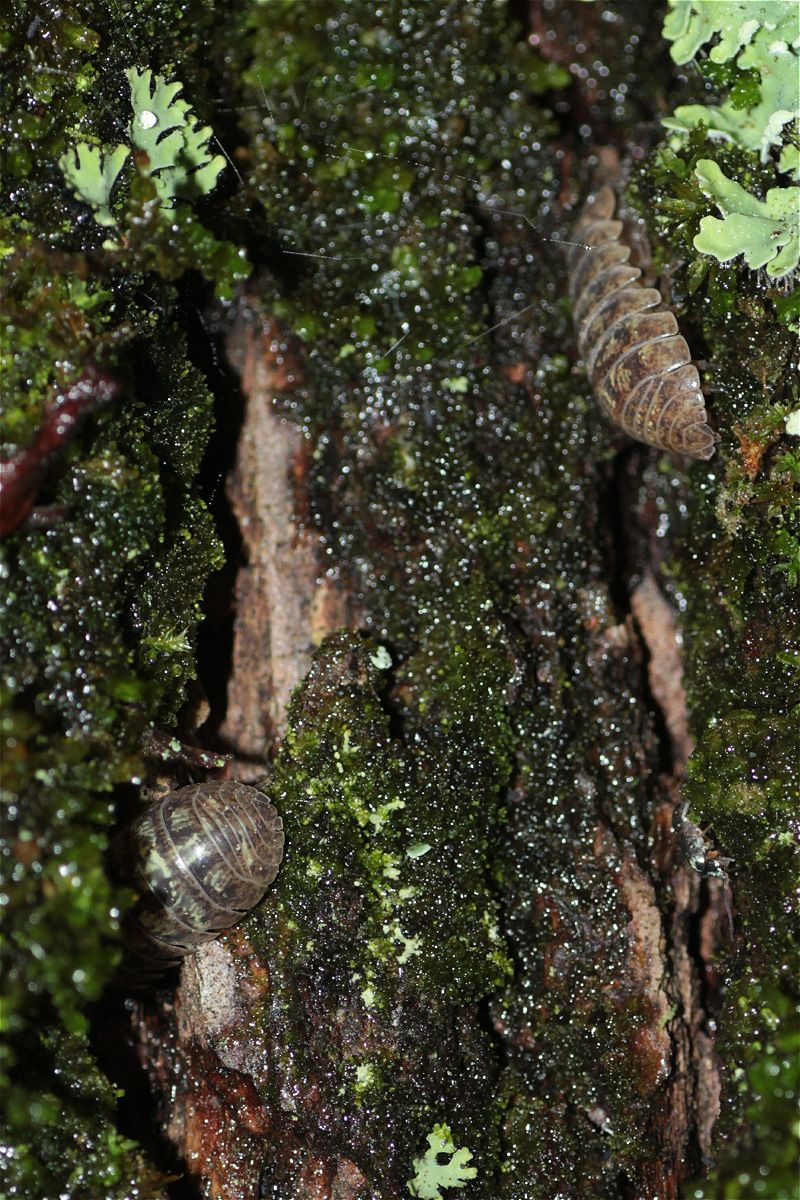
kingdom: Animalia
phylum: Arthropoda
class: Malacostraca
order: Isopoda
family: Armadillidiidae
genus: Armadillidium
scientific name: Armadillidium vulgare
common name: Common pill woodlouse
